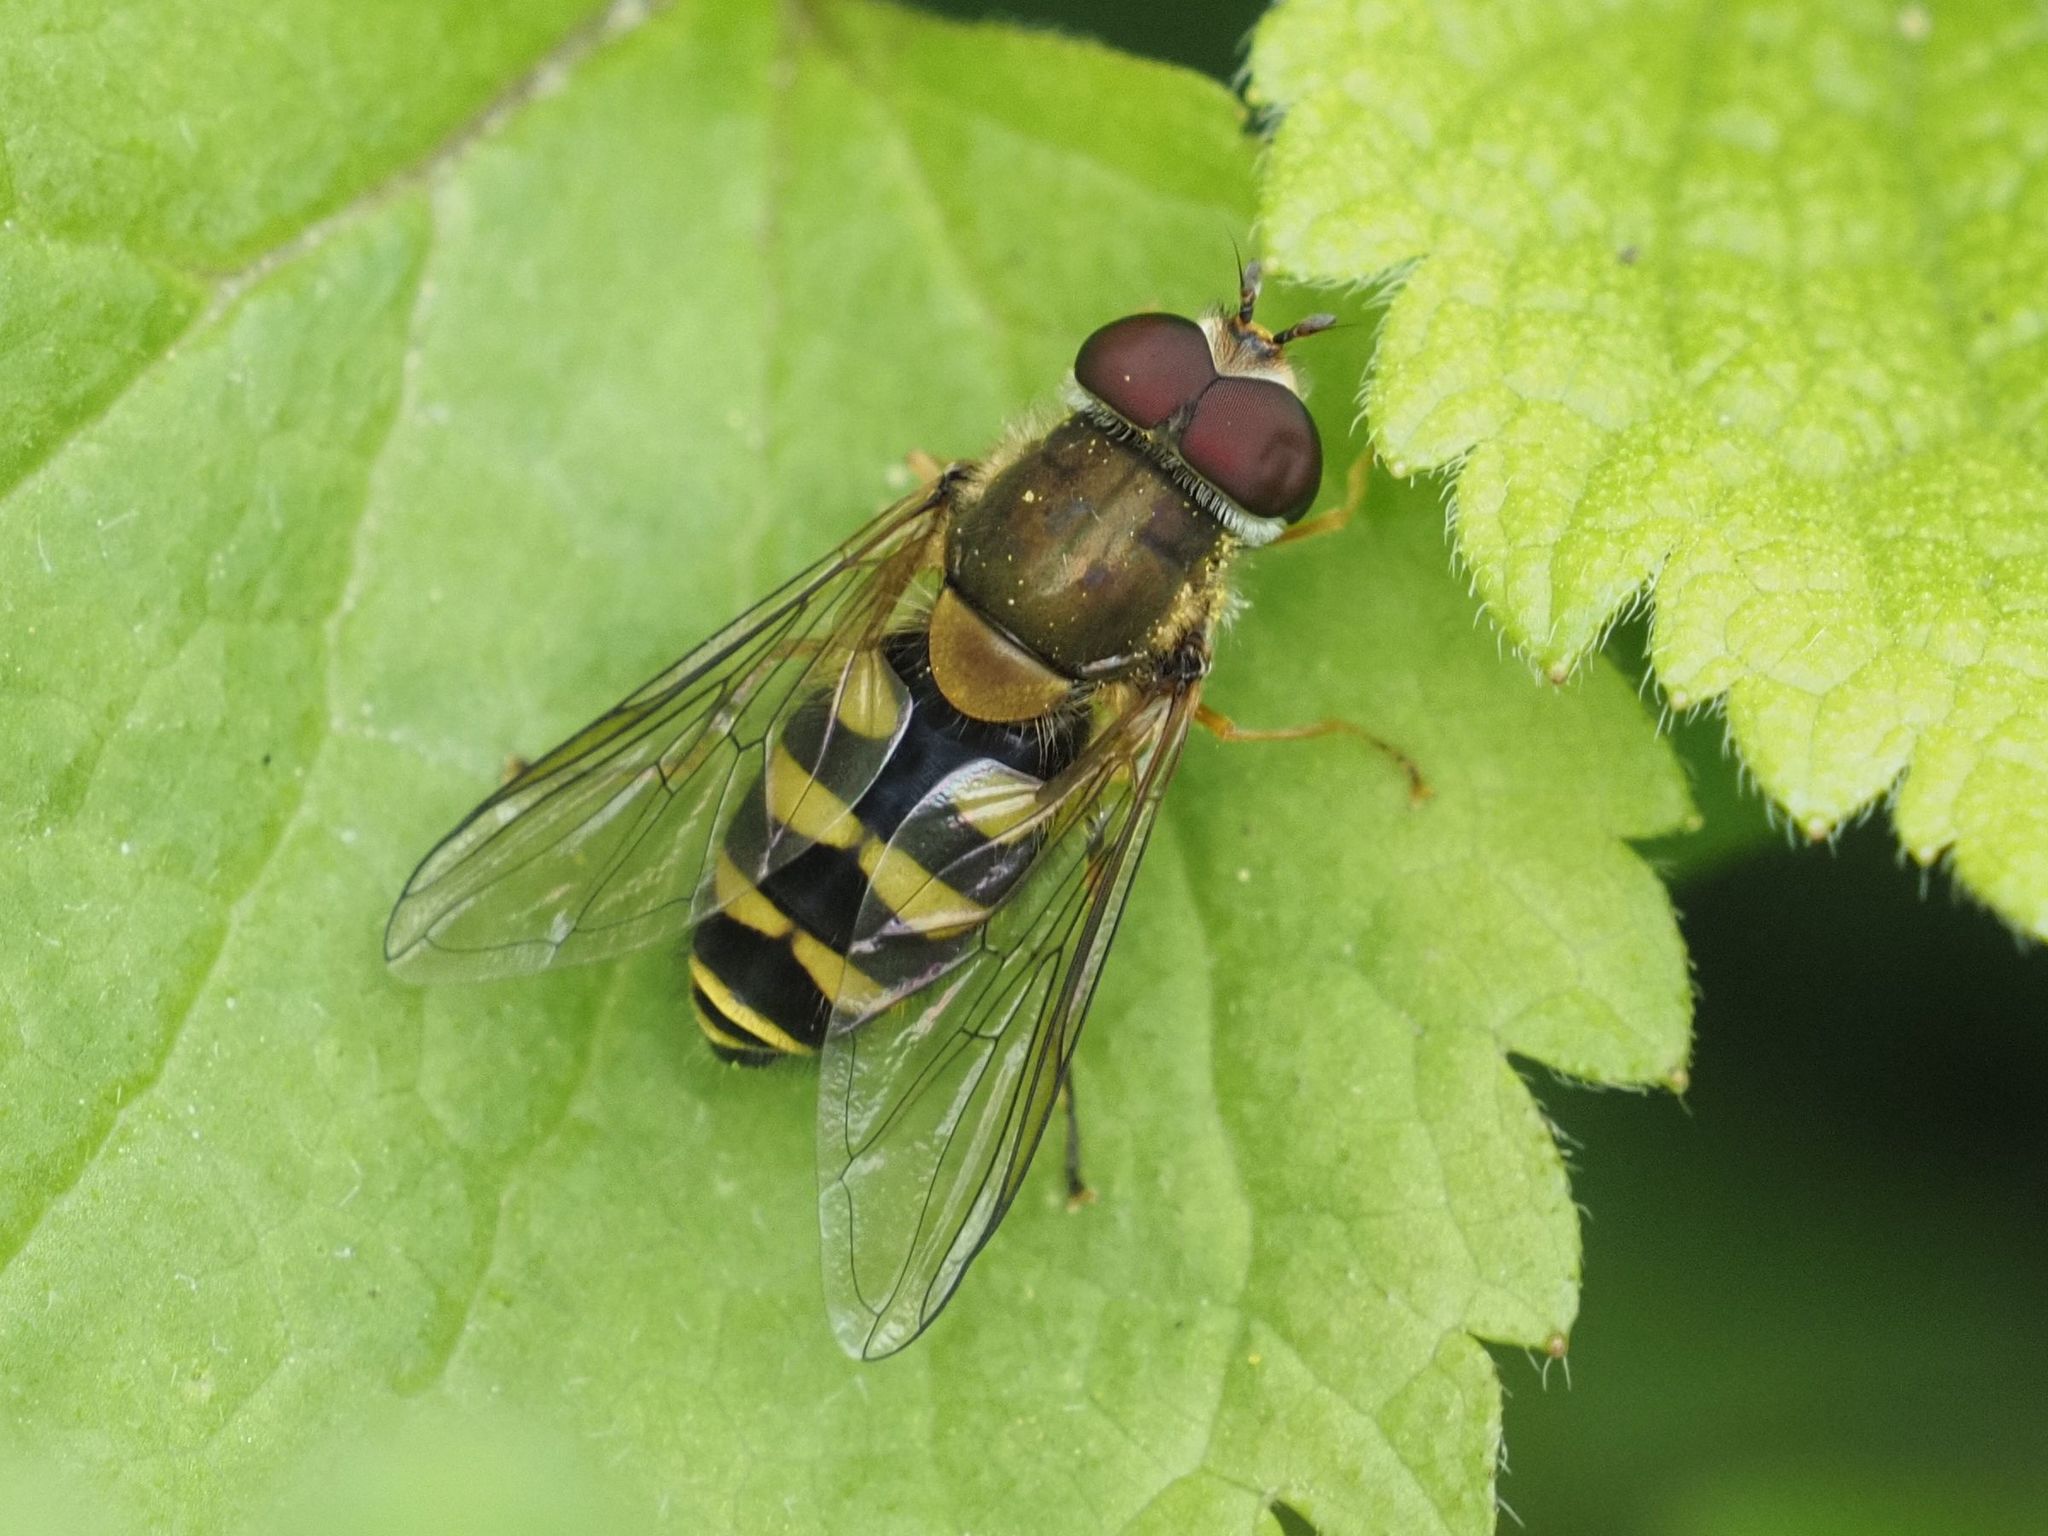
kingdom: Animalia
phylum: Arthropoda
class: Insecta
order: Diptera
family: Syrphidae
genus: Syrphus
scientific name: Syrphus
